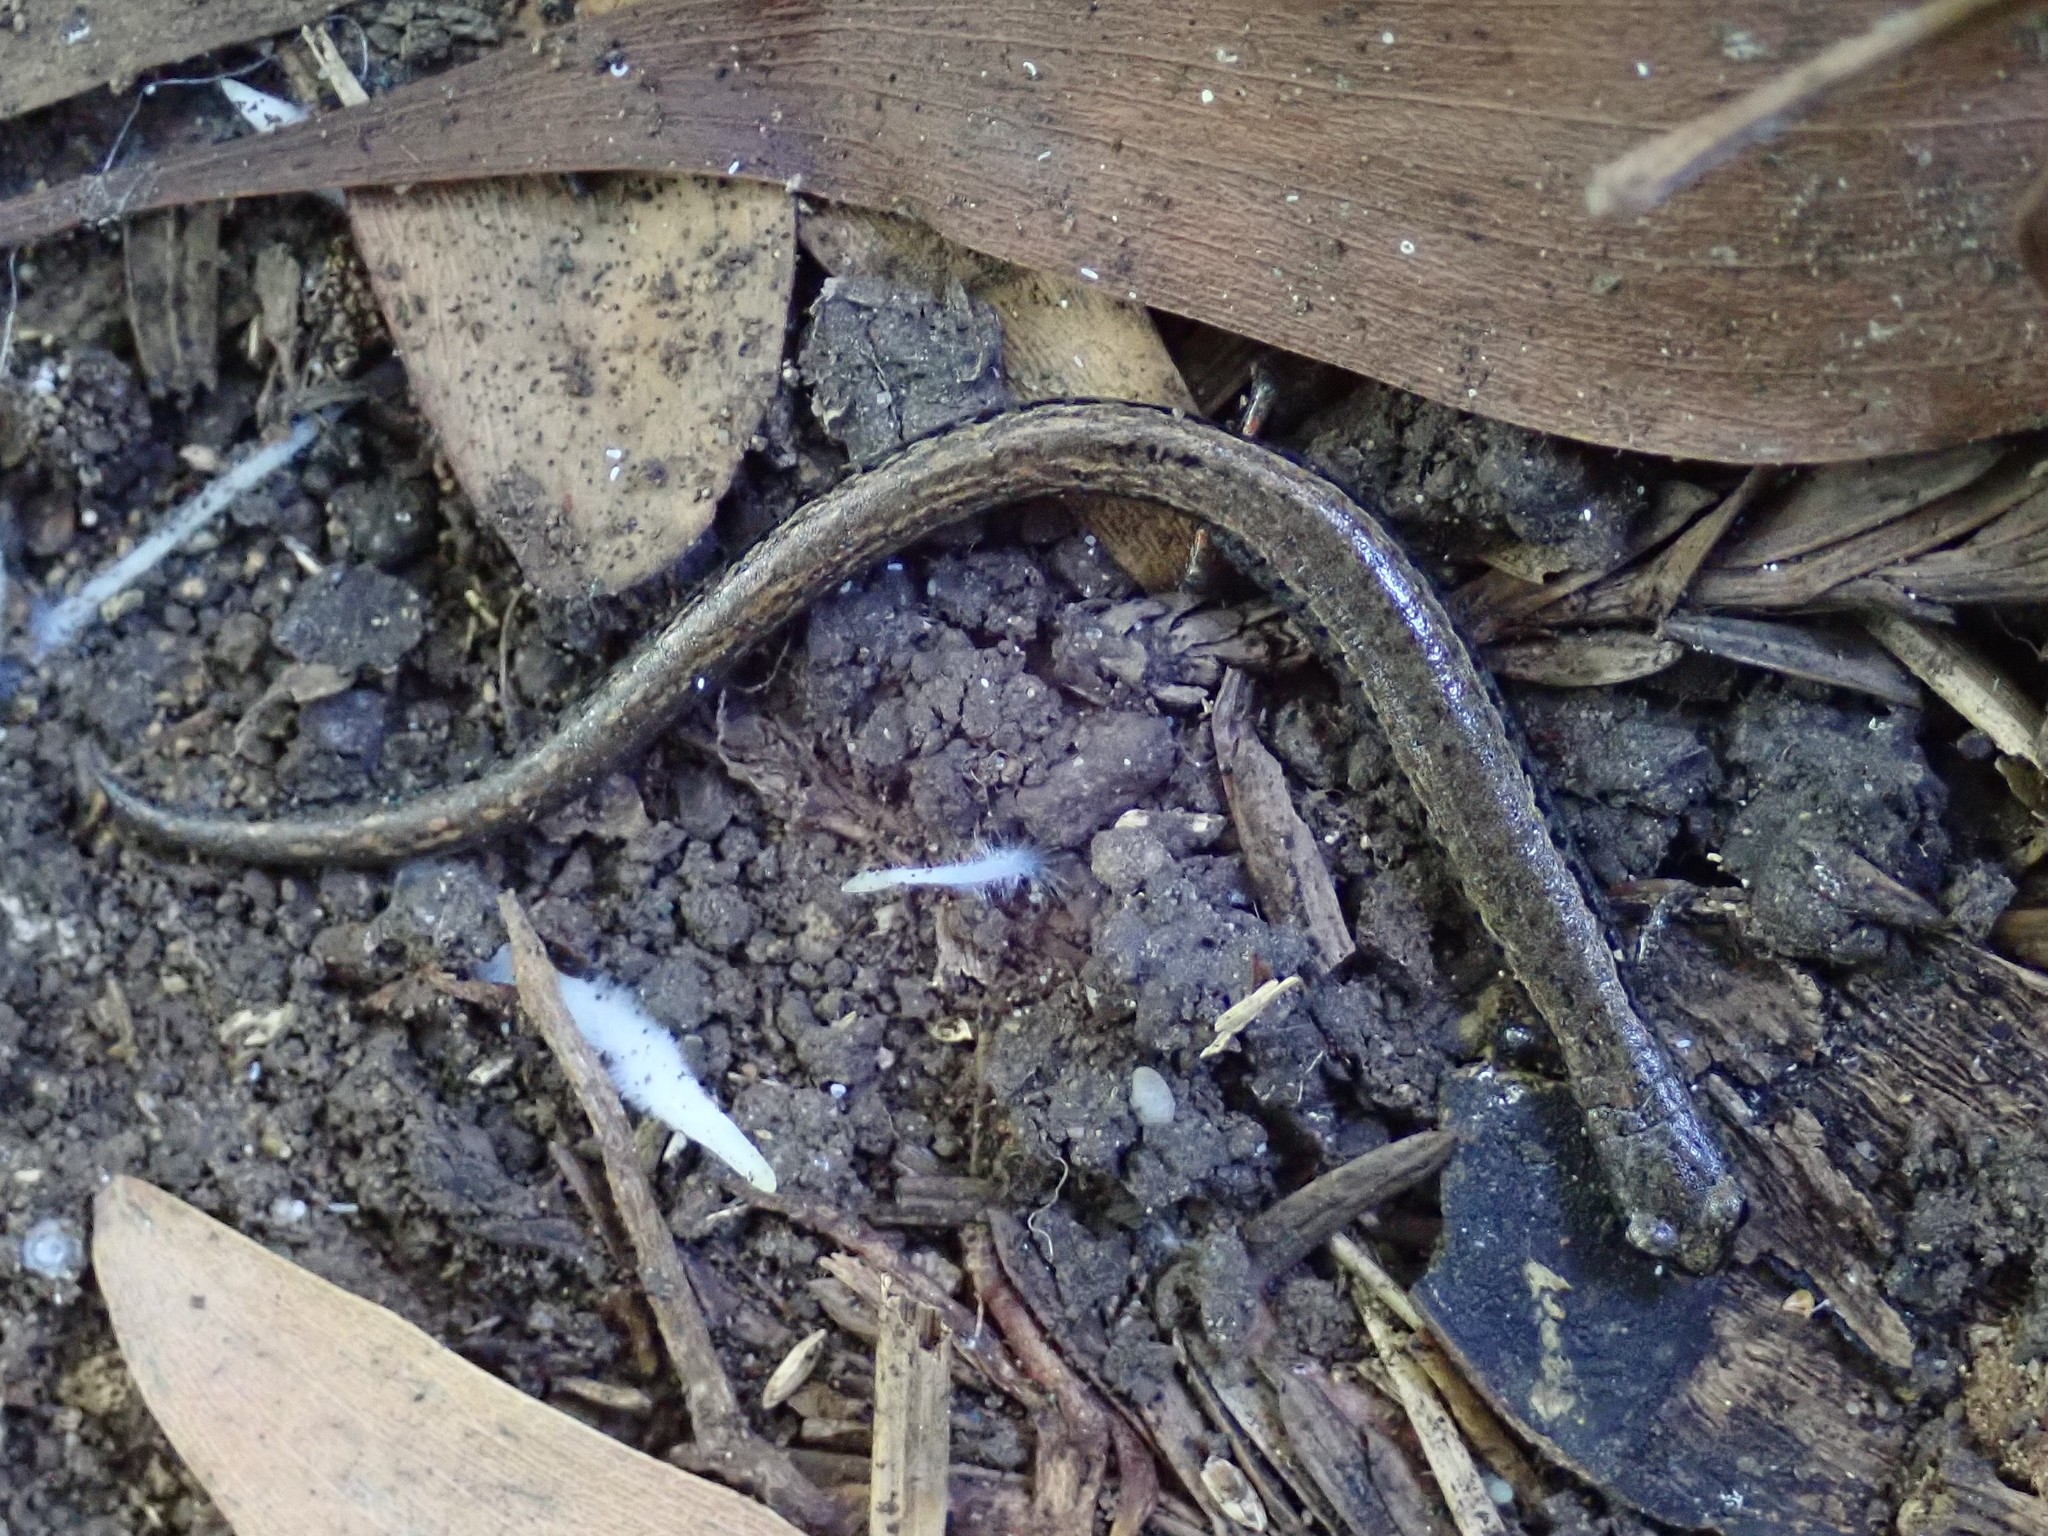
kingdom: Animalia
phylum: Chordata
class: Amphibia
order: Caudata
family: Plethodontidae
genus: Batrachoseps
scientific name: Batrachoseps attenuatus
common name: California slender salamander
